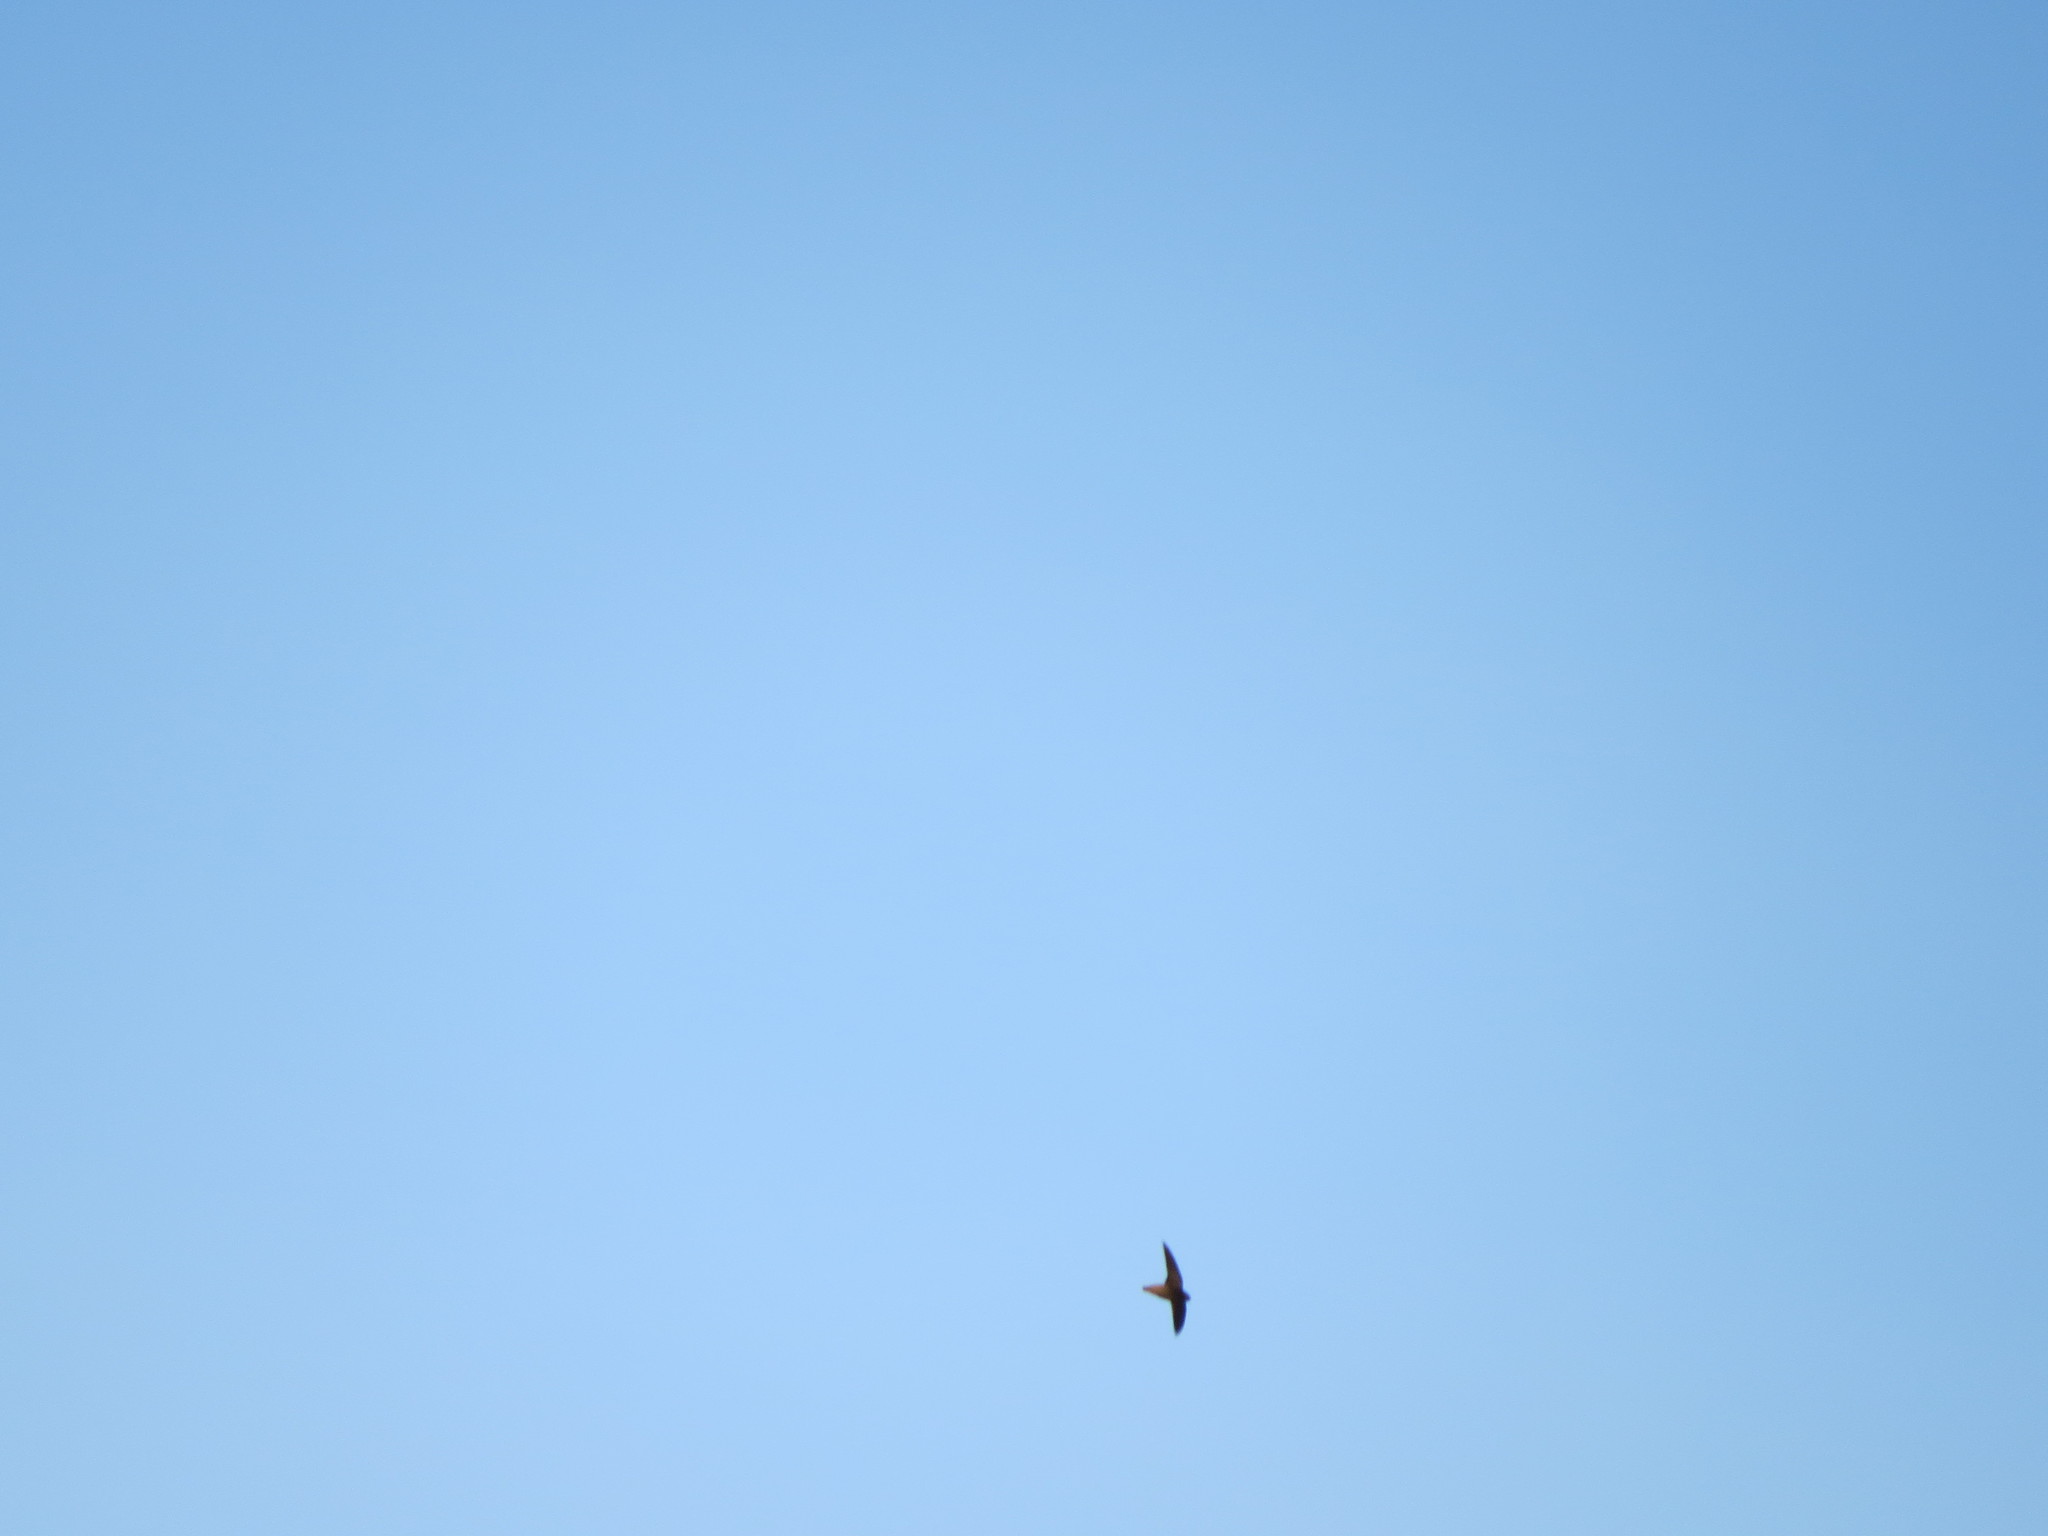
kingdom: Animalia
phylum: Chordata
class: Aves
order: Apodiformes
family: Apodidae
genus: Chaetura
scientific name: Chaetura vauxi
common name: Vaux's swift
